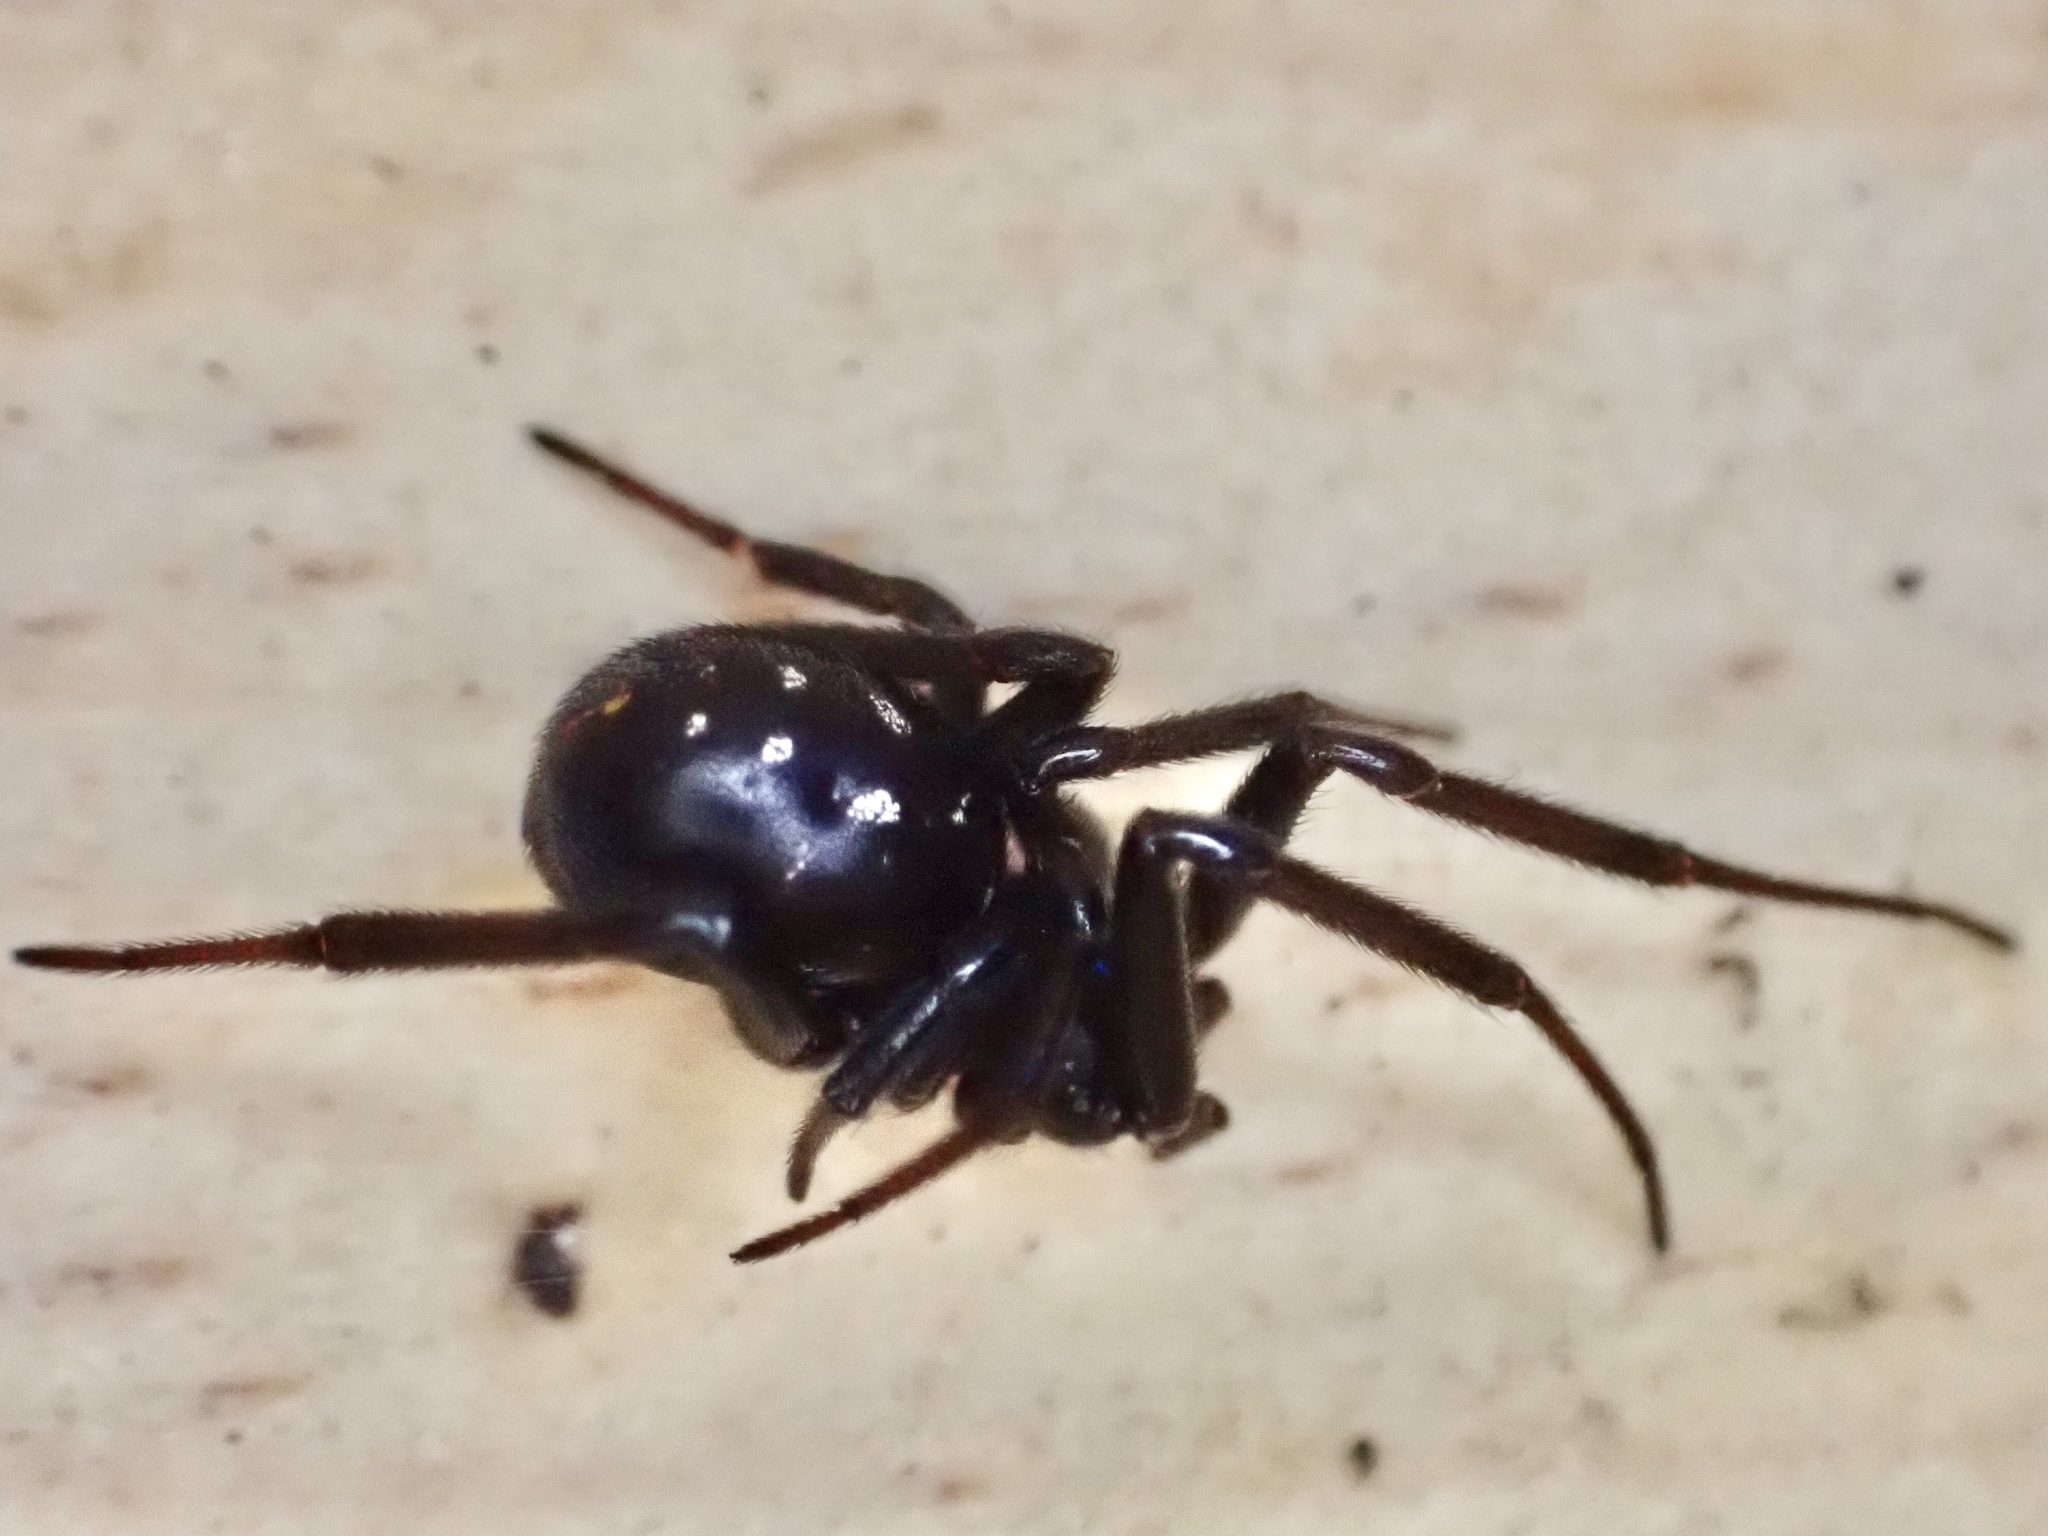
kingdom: Animalia
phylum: Arthropoda
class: Arachnida
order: Araneae
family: Theridiidae
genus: Steatoda
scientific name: Steatoda capensis
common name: Cobweb weaver
